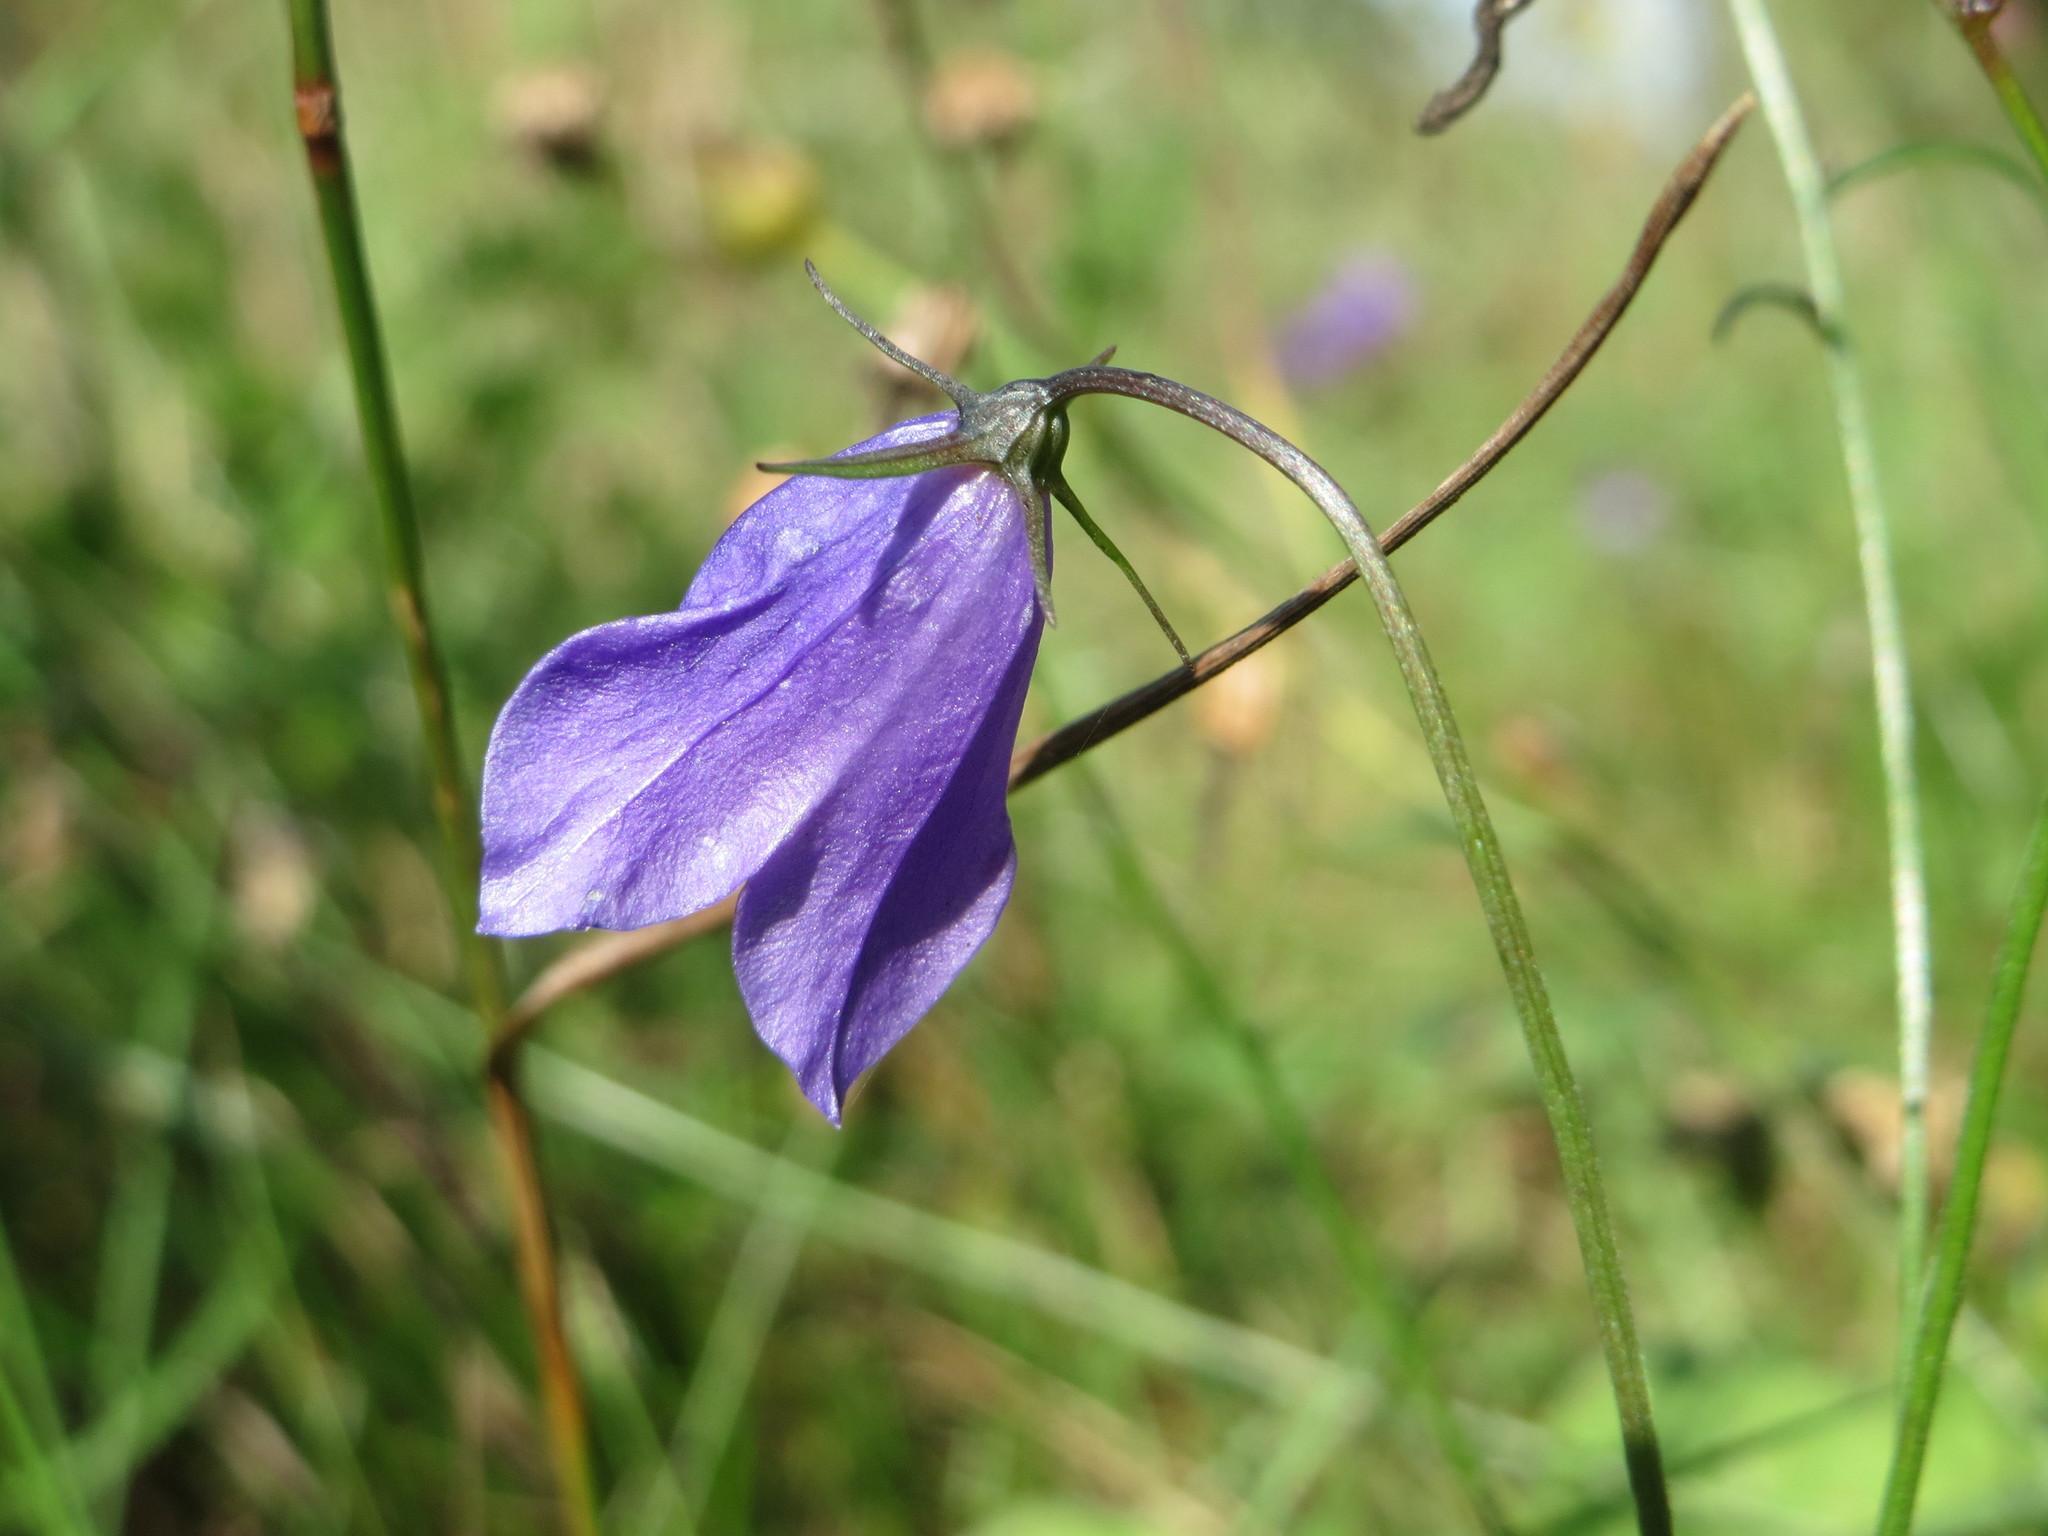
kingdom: Plantae
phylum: Tracheophyta
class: Magnoliopsida
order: Asterales
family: Campanulaceae
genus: Campanula
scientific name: Campanula rotundifolia
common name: Harebell
